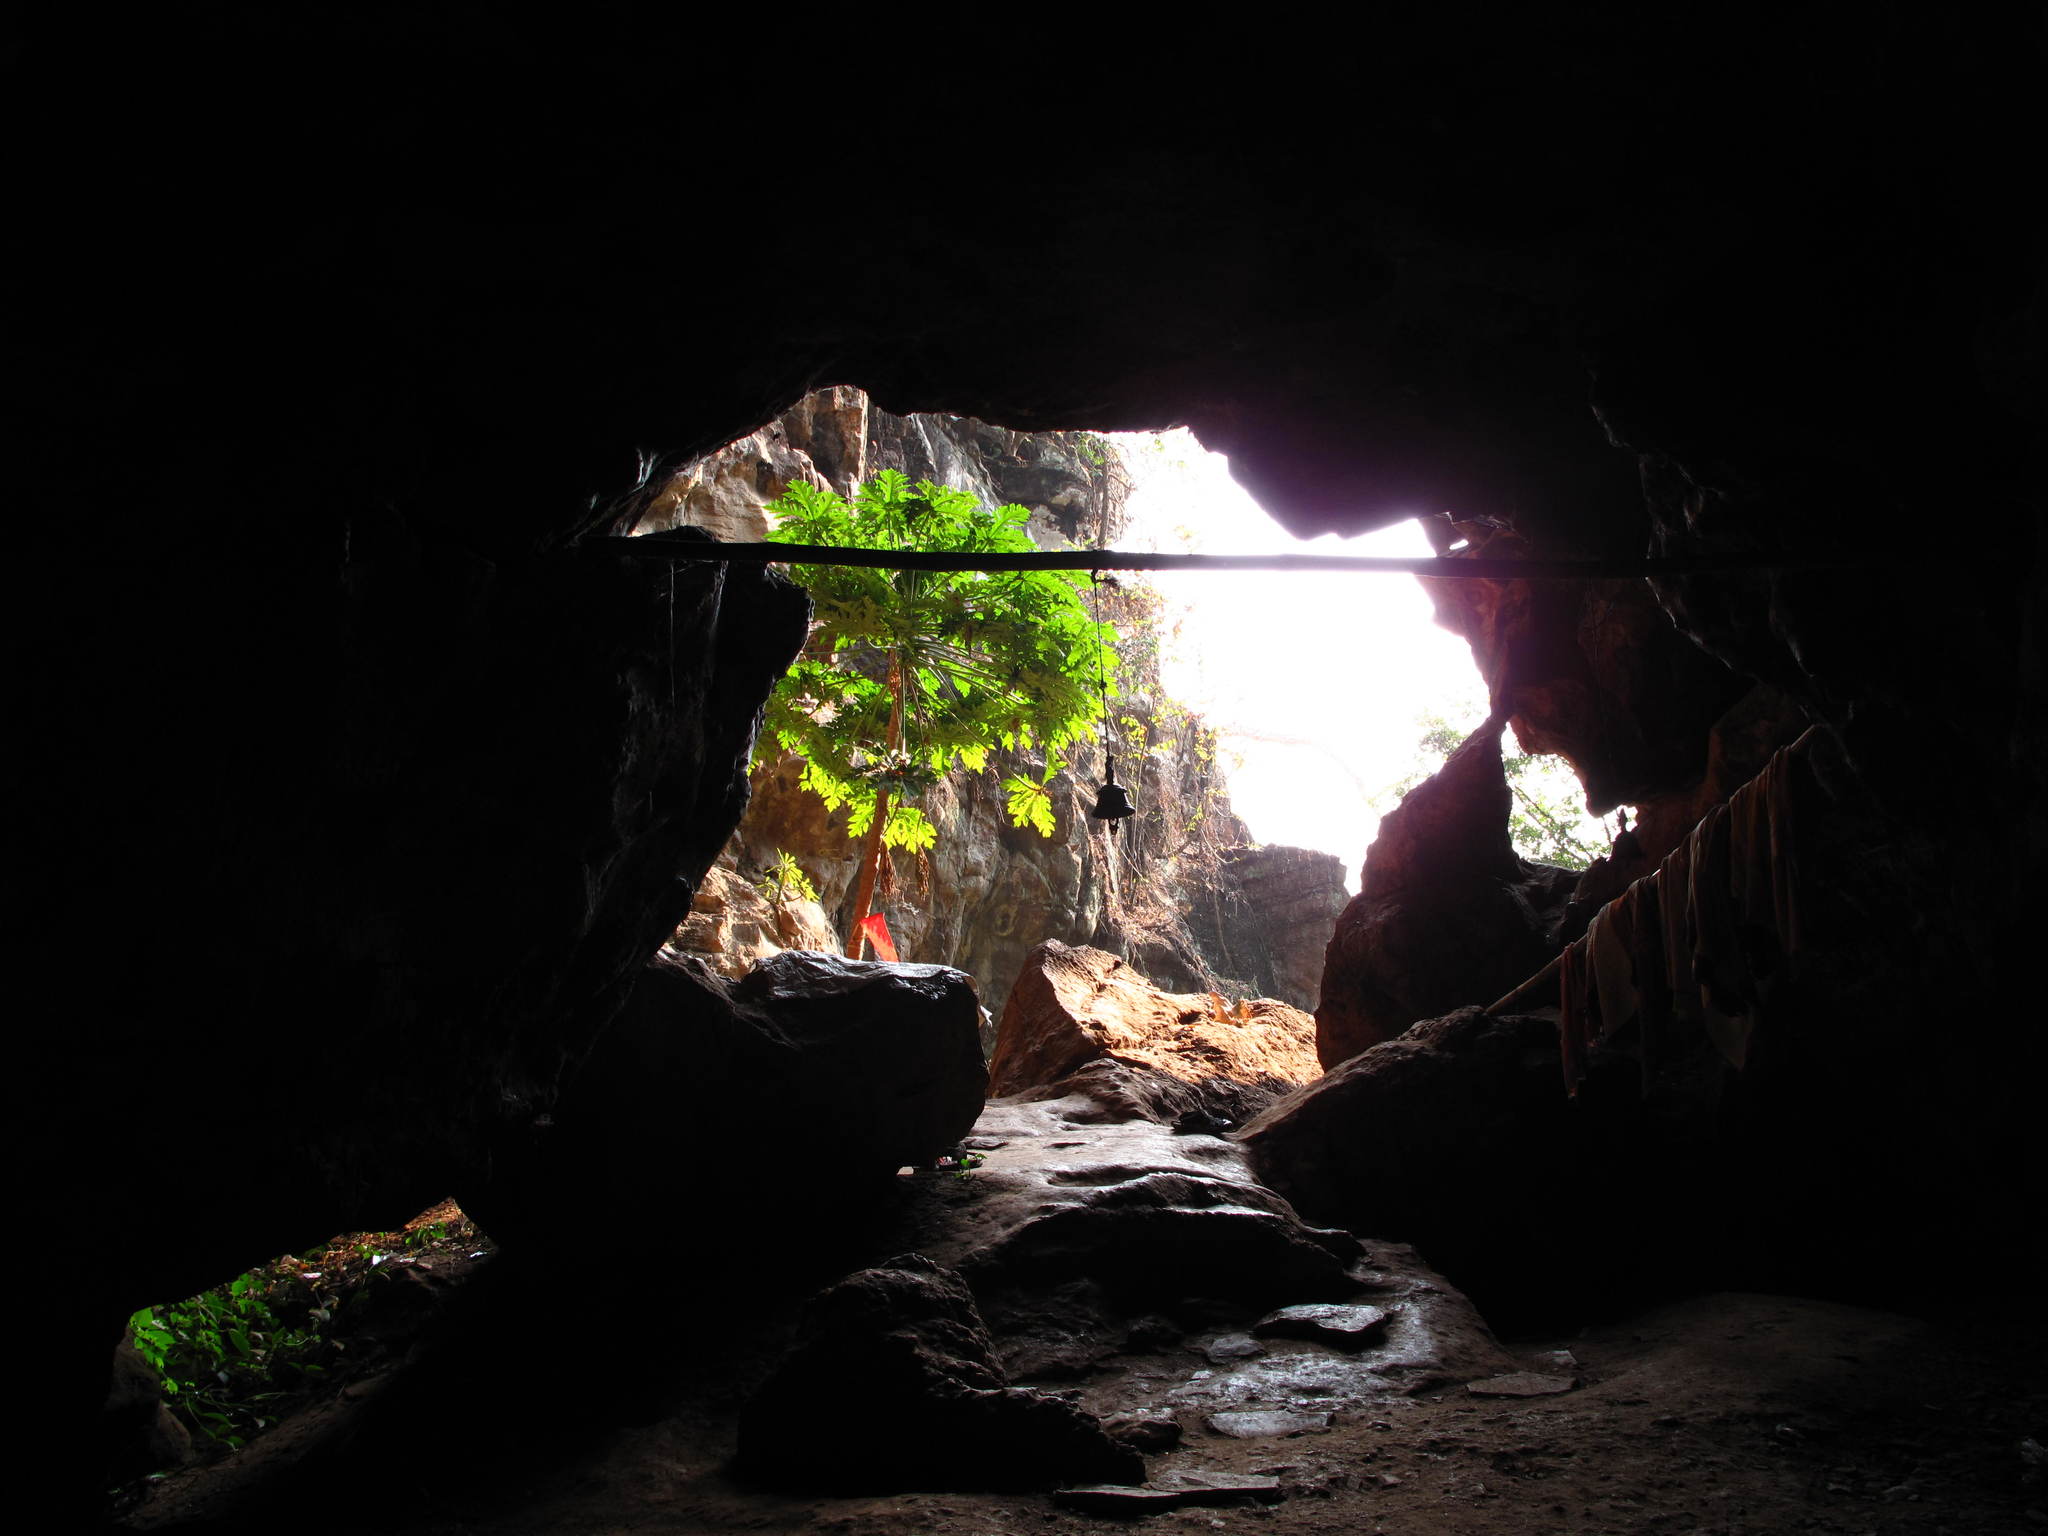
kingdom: Plantae
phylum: Tracheophyta
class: Magnoliopsida
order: Brassicales
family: Caricaceae
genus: Carica
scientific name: Carica papaya
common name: Papaya
